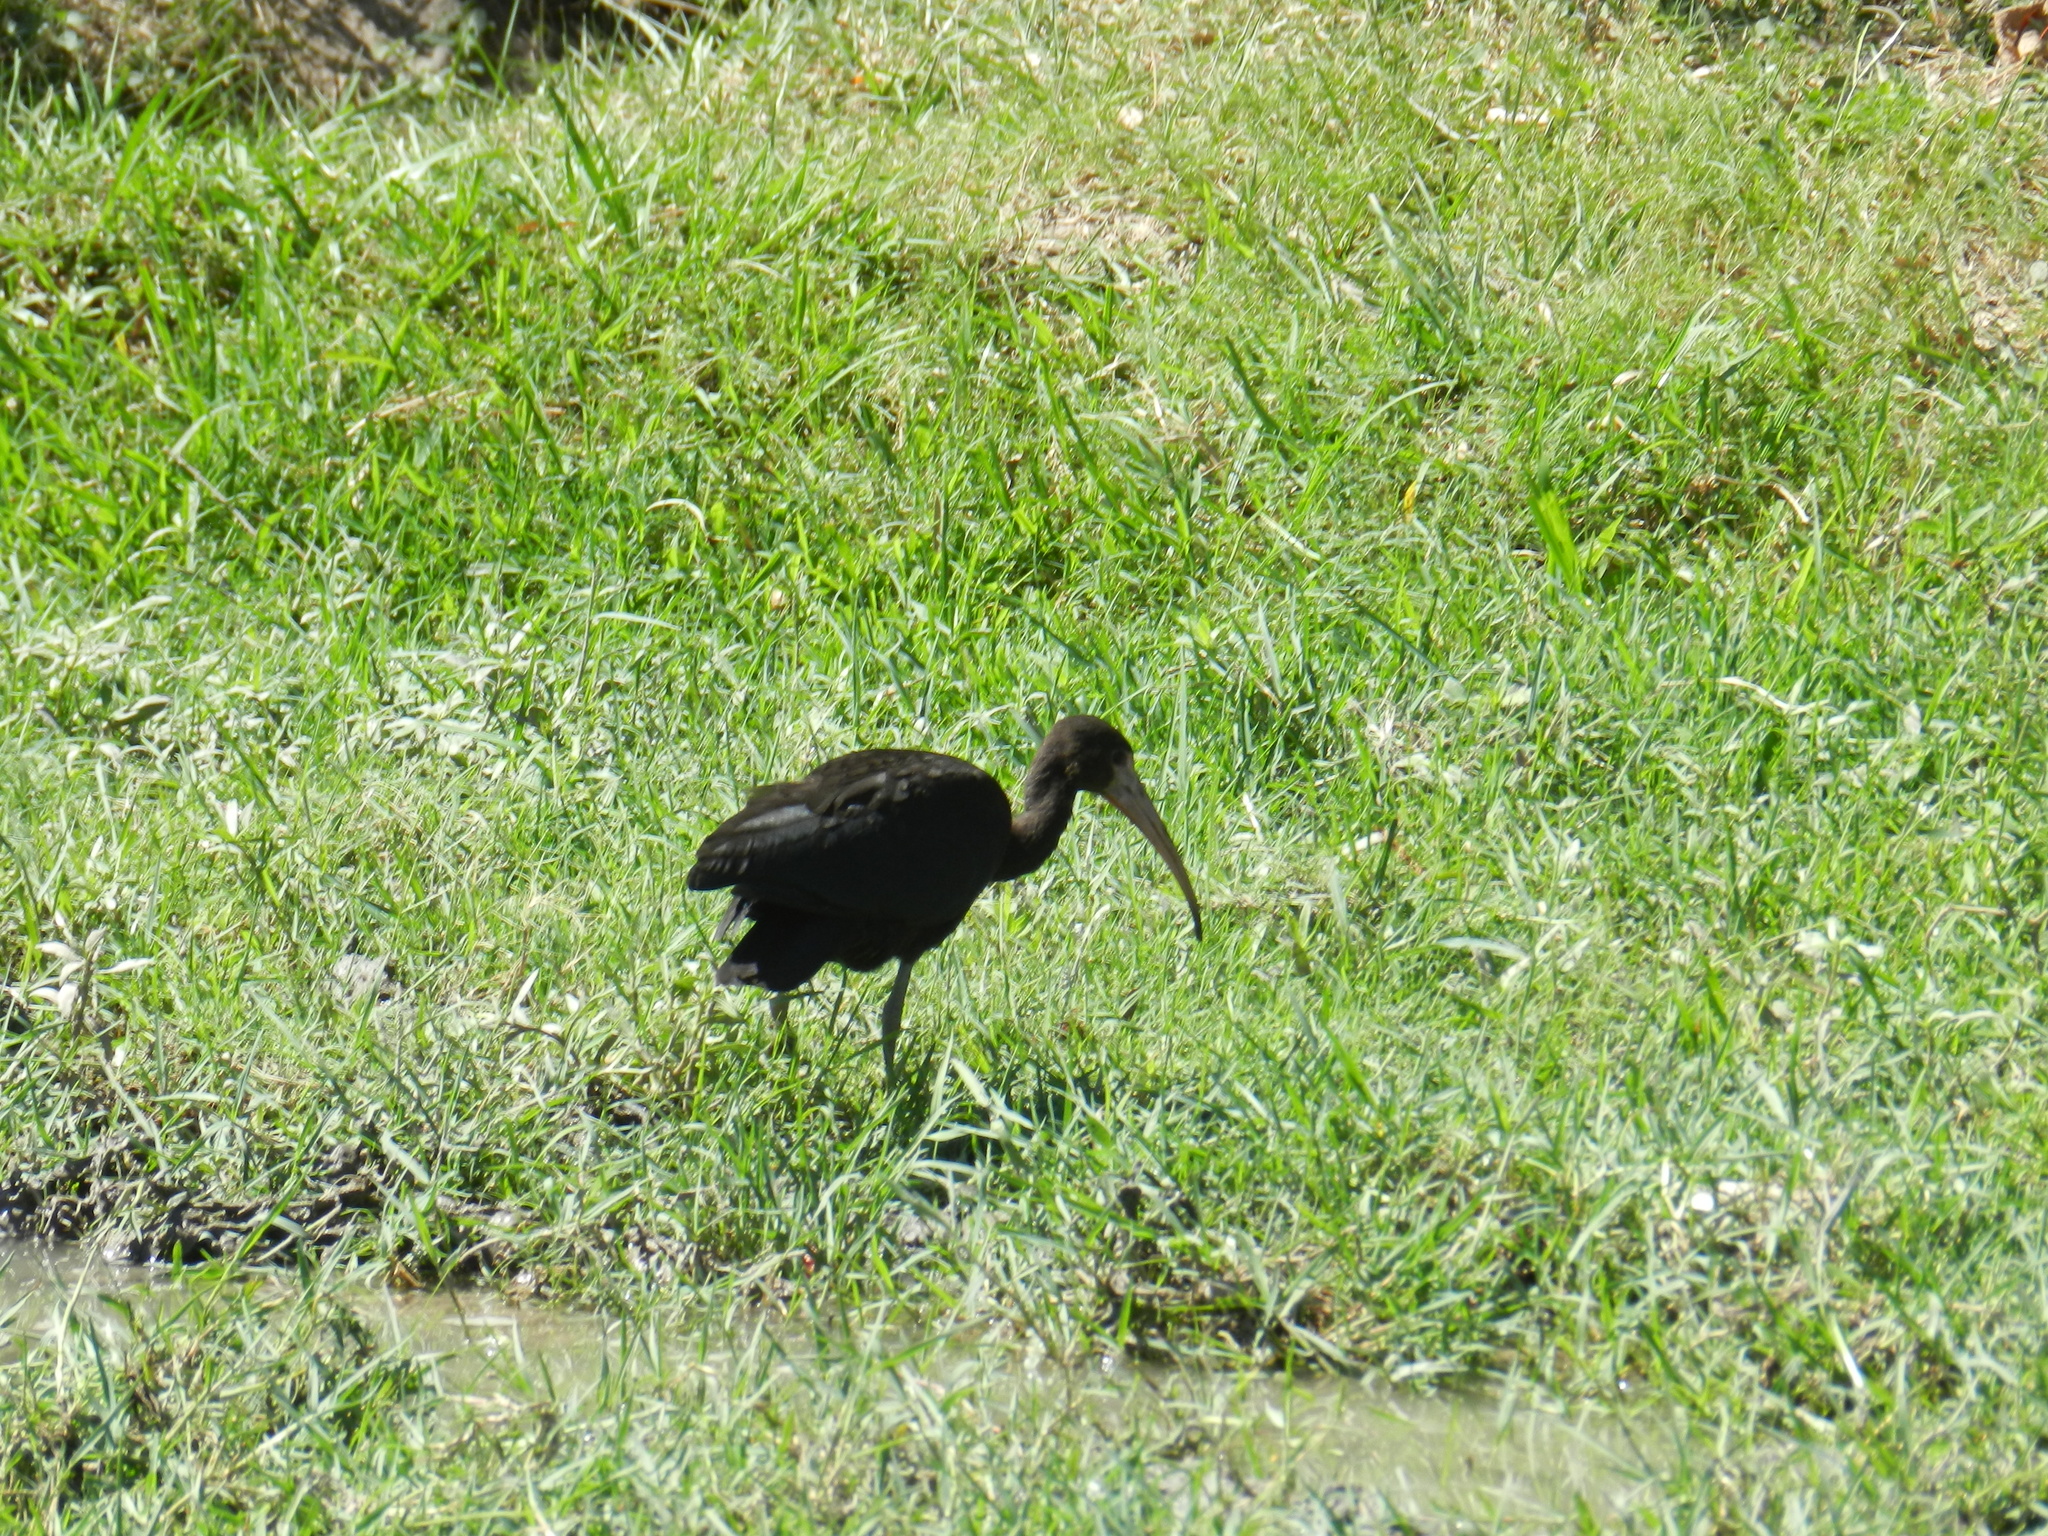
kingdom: Animalia
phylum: Chordata
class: Aves
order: Pelecaniformes
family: Threskiornithidae
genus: Phimosus
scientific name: Phimosus infuscatus
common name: Bare-faced ibis
